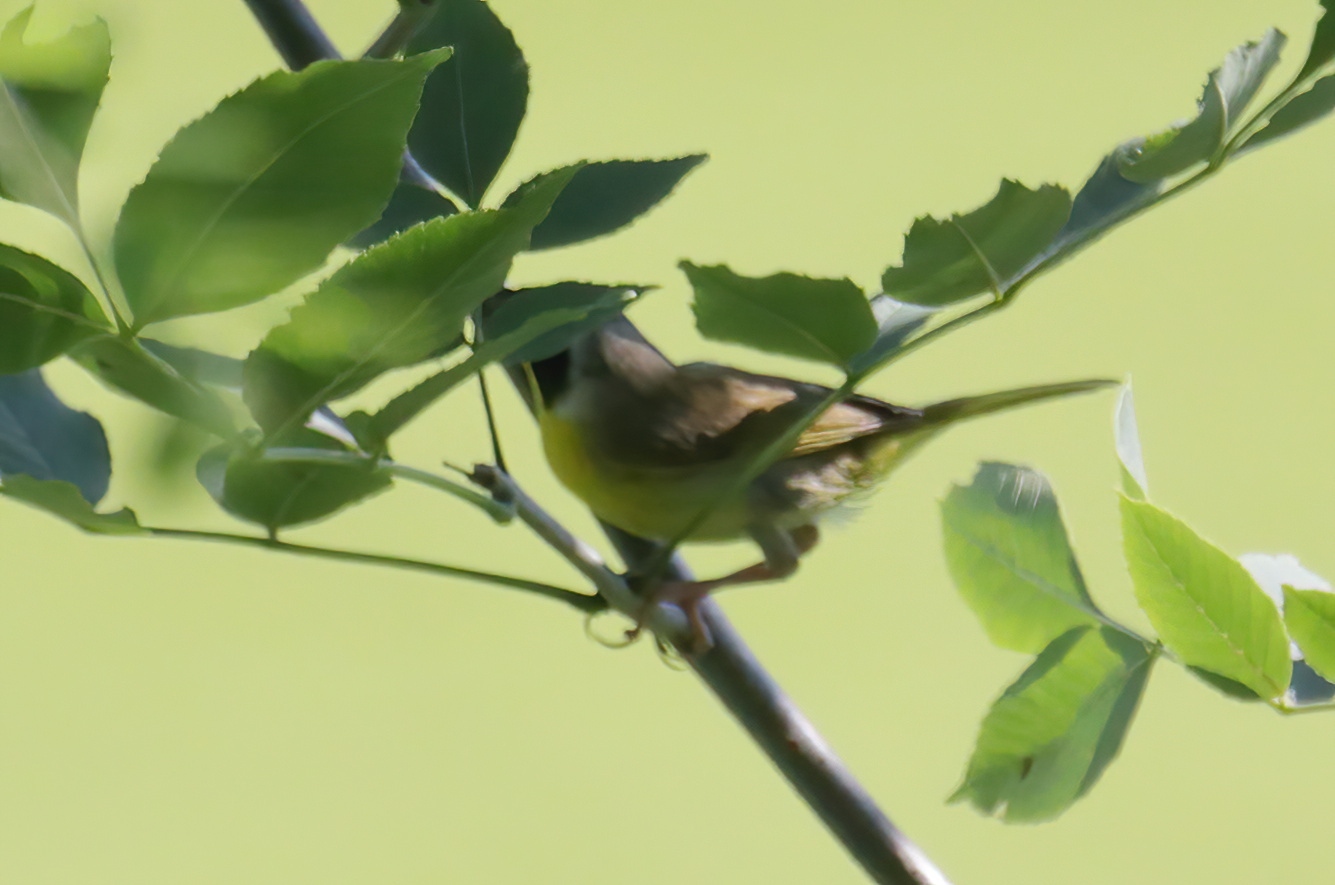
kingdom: Animalia
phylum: Chordata
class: Aves
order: Passeriformes
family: Parulidae
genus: Geothlypis
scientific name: Geothlypis trichas
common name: Common yellowthroat
